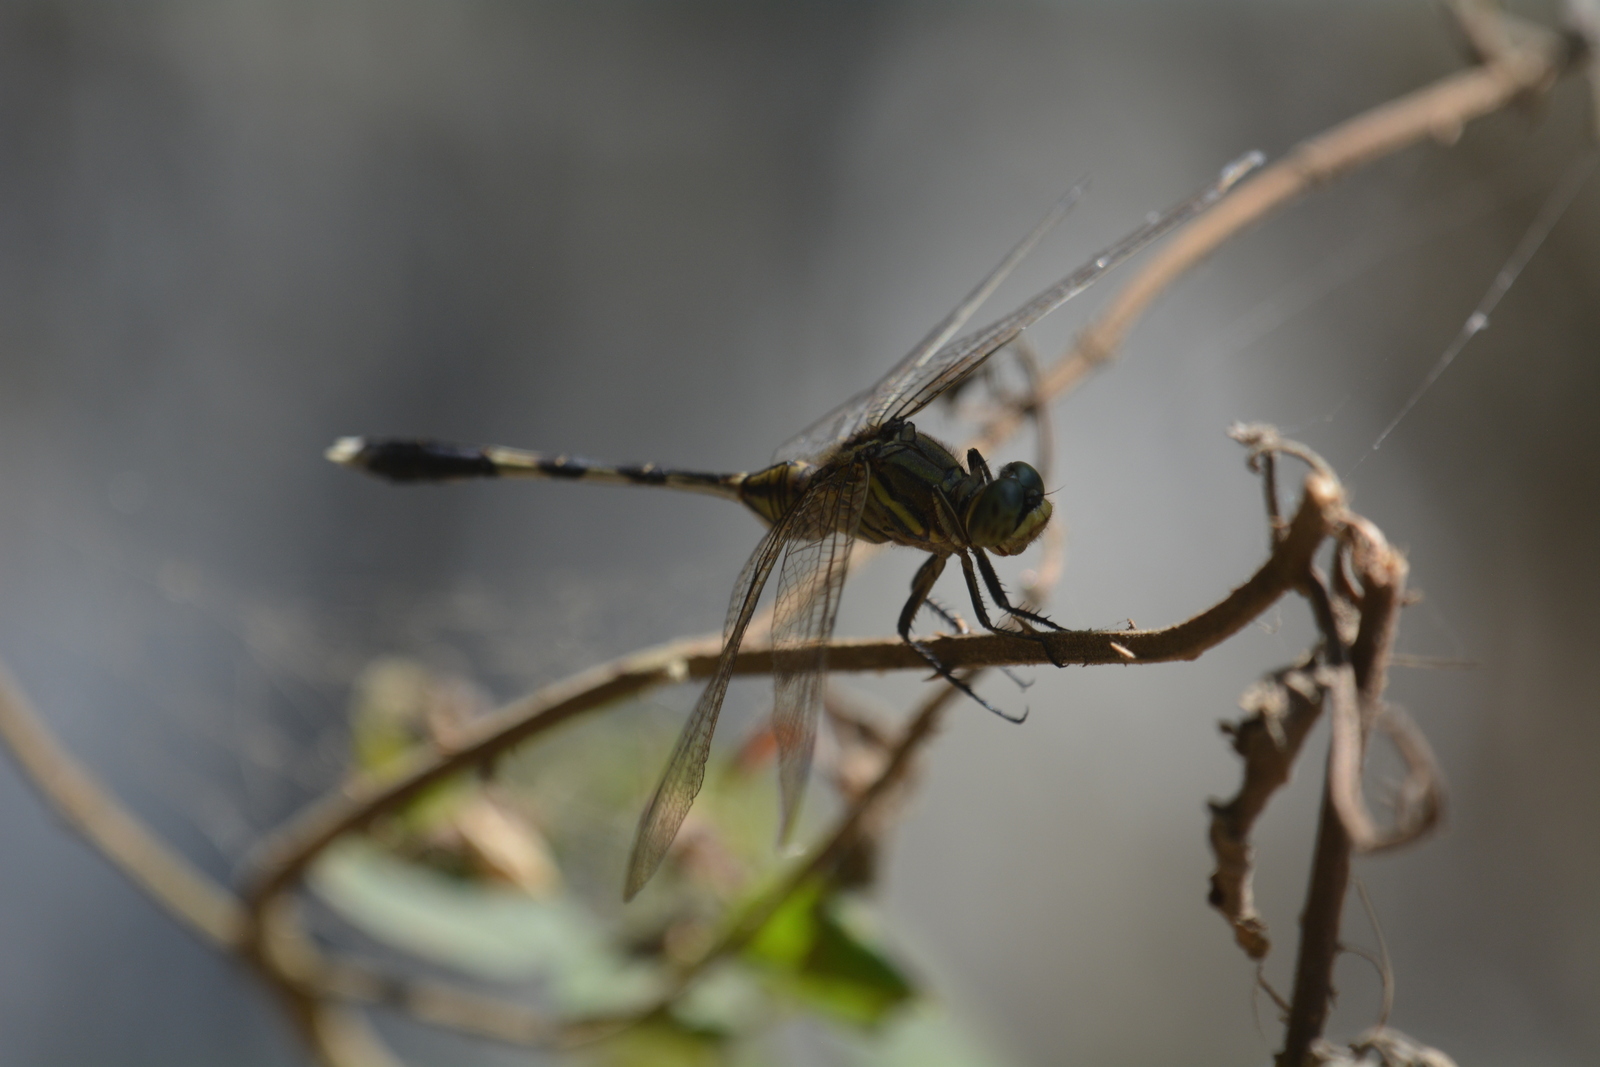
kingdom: Animalia
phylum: Arthropoda
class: Insecta
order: Odonata
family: Libellulidae
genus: Orthetrum
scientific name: Orthetrum sabina
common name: Slender skimmer
